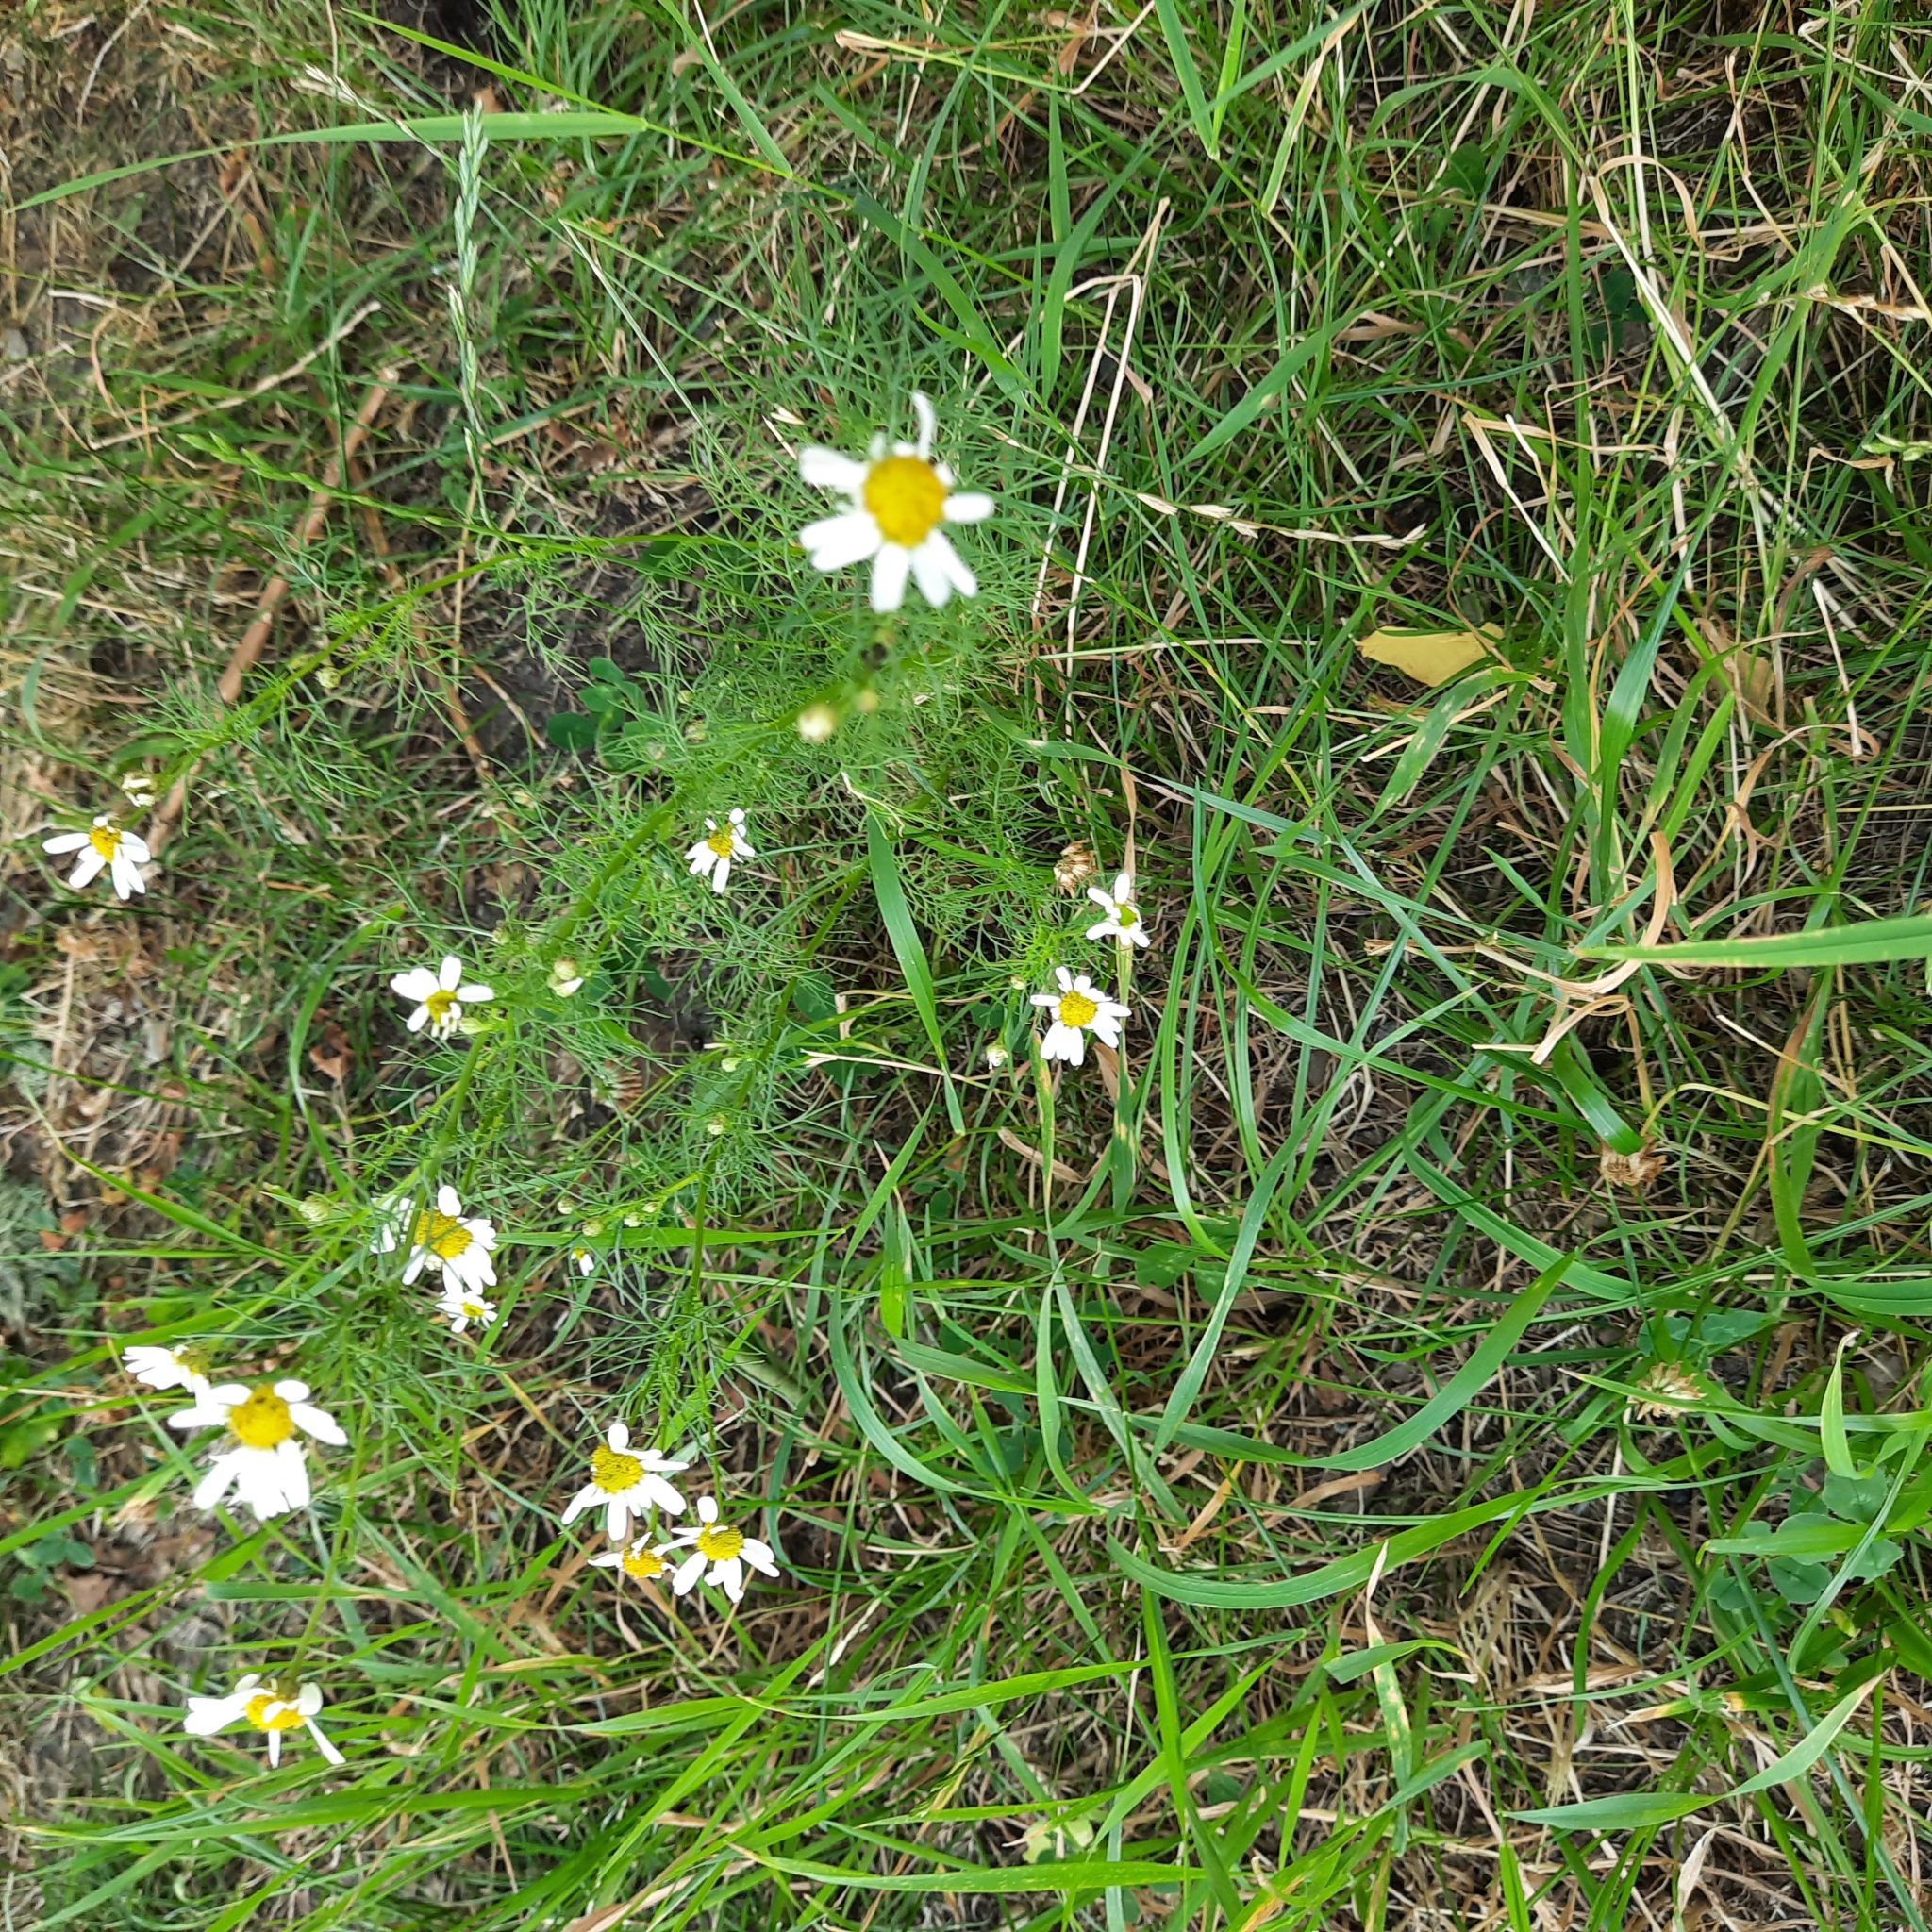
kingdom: Plantae
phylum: Tracheophyta
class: Magnoliopsida
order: Asterales
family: Asteraceae
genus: Tripleurospermum
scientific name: Tripleurospermum inodorum
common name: Scentless mayweed
